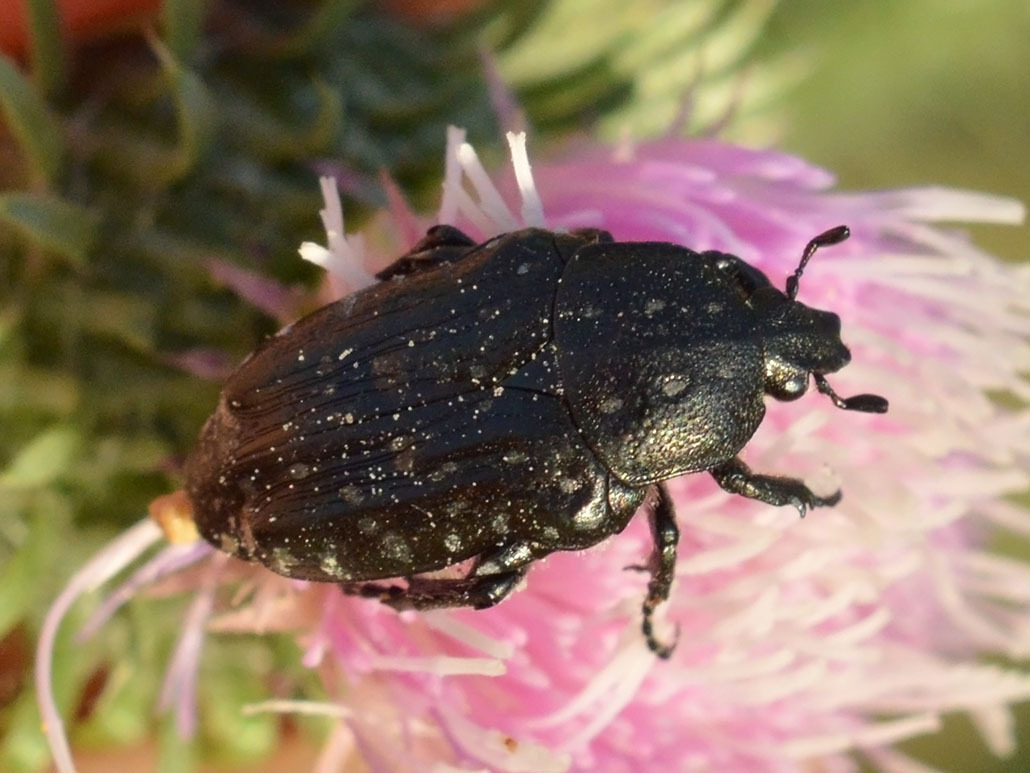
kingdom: Animalia
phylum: Arthropoda
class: Insecta
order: Coleoptera
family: Scarabaeidae
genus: Oxythyrea
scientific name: Oxythyrea funesta
